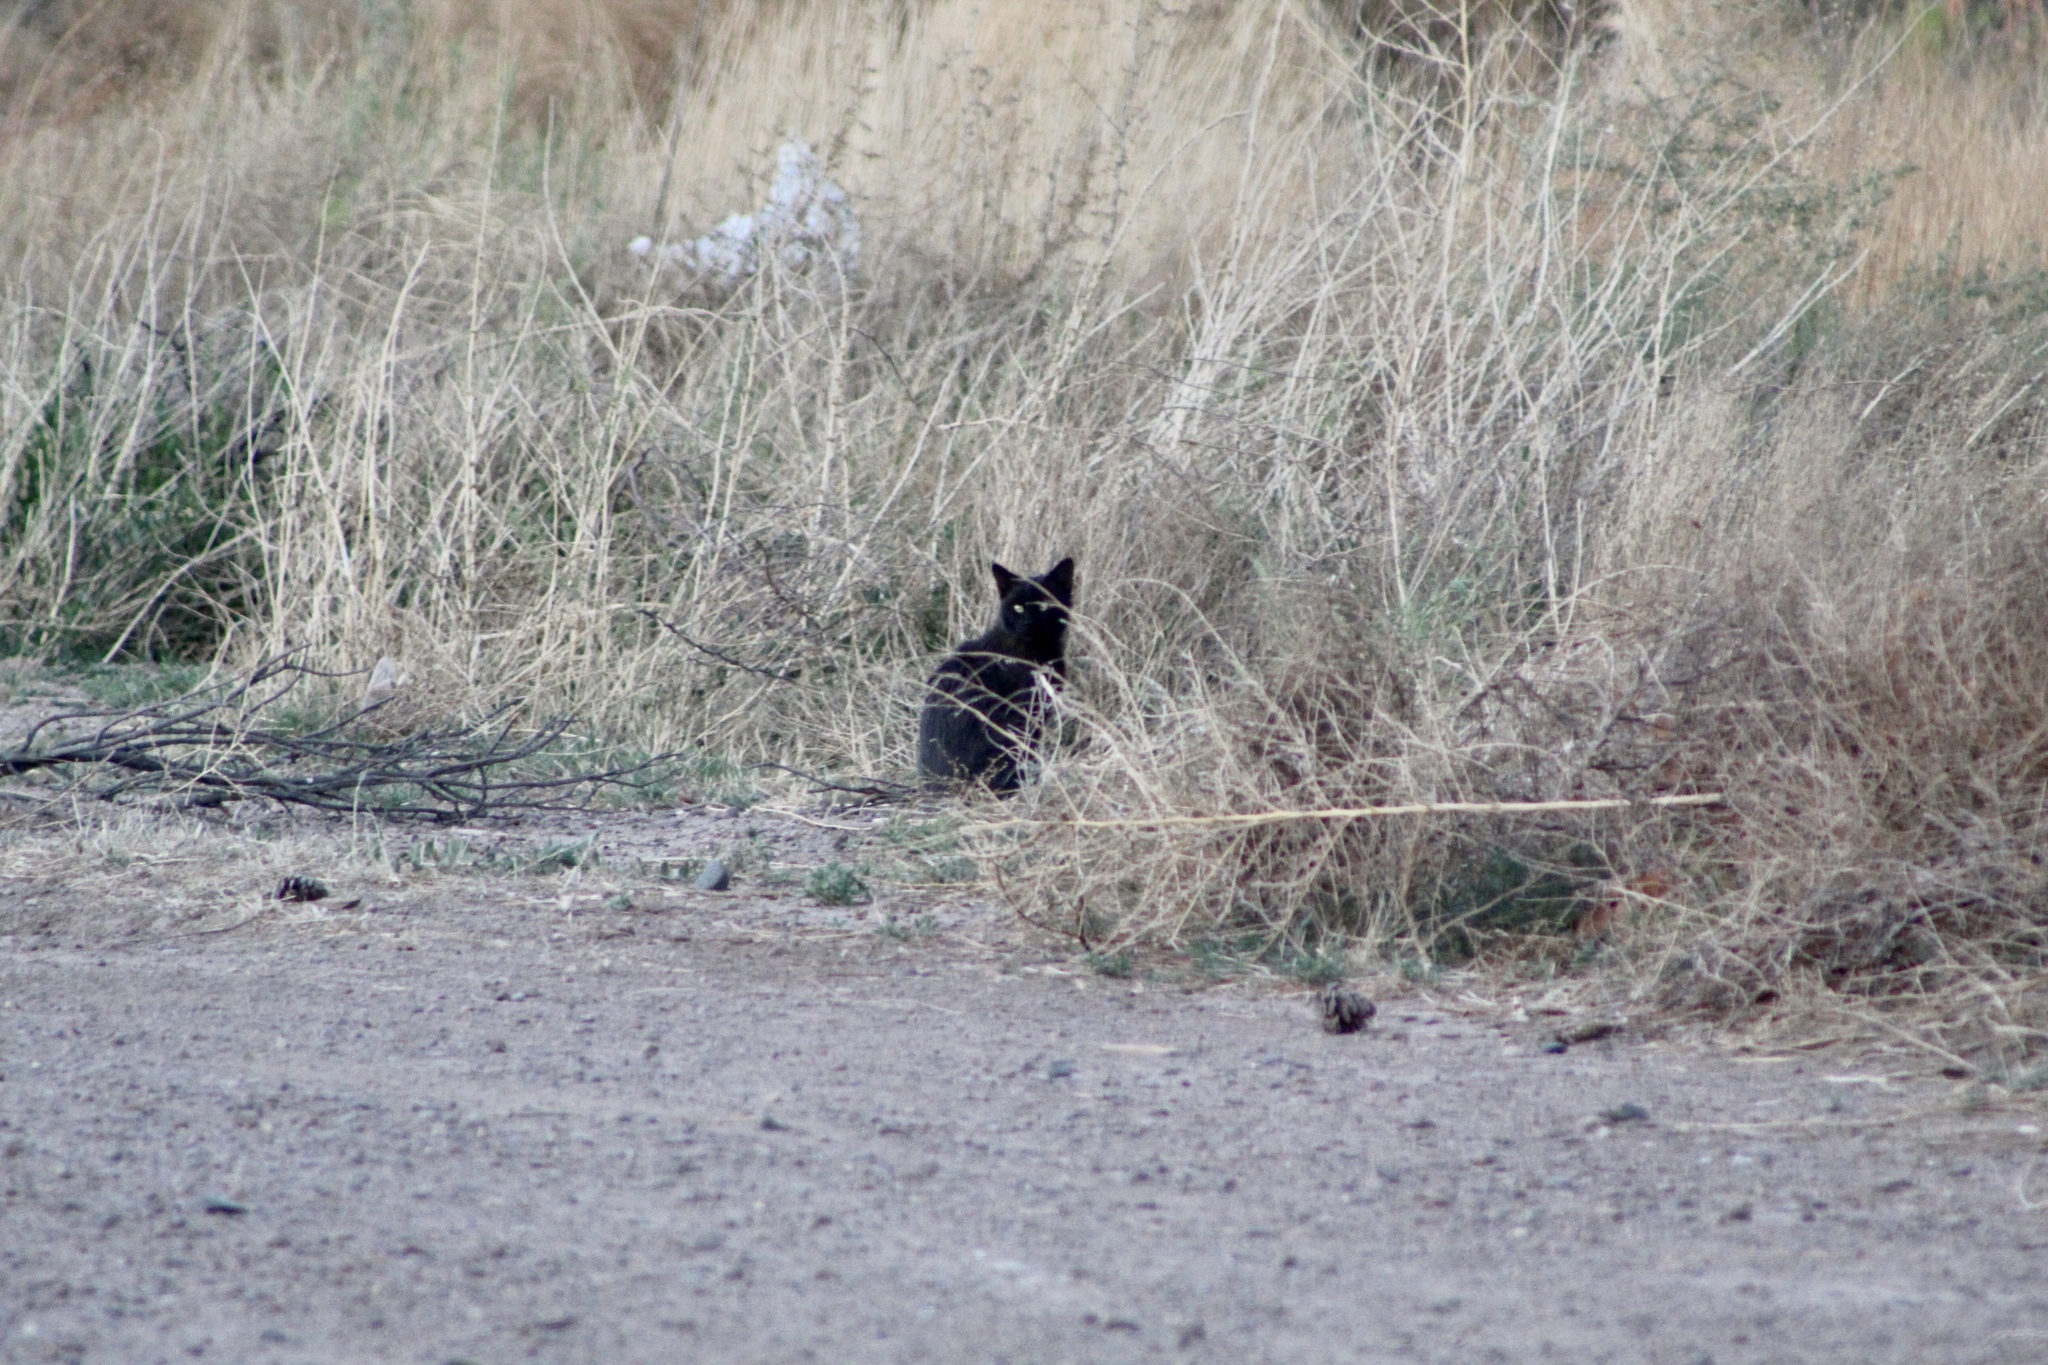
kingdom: Animalia
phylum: Chordata
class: Mammalia
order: Carnivora
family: Felidae
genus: Felis
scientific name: Felis catus
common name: Domestic cat
